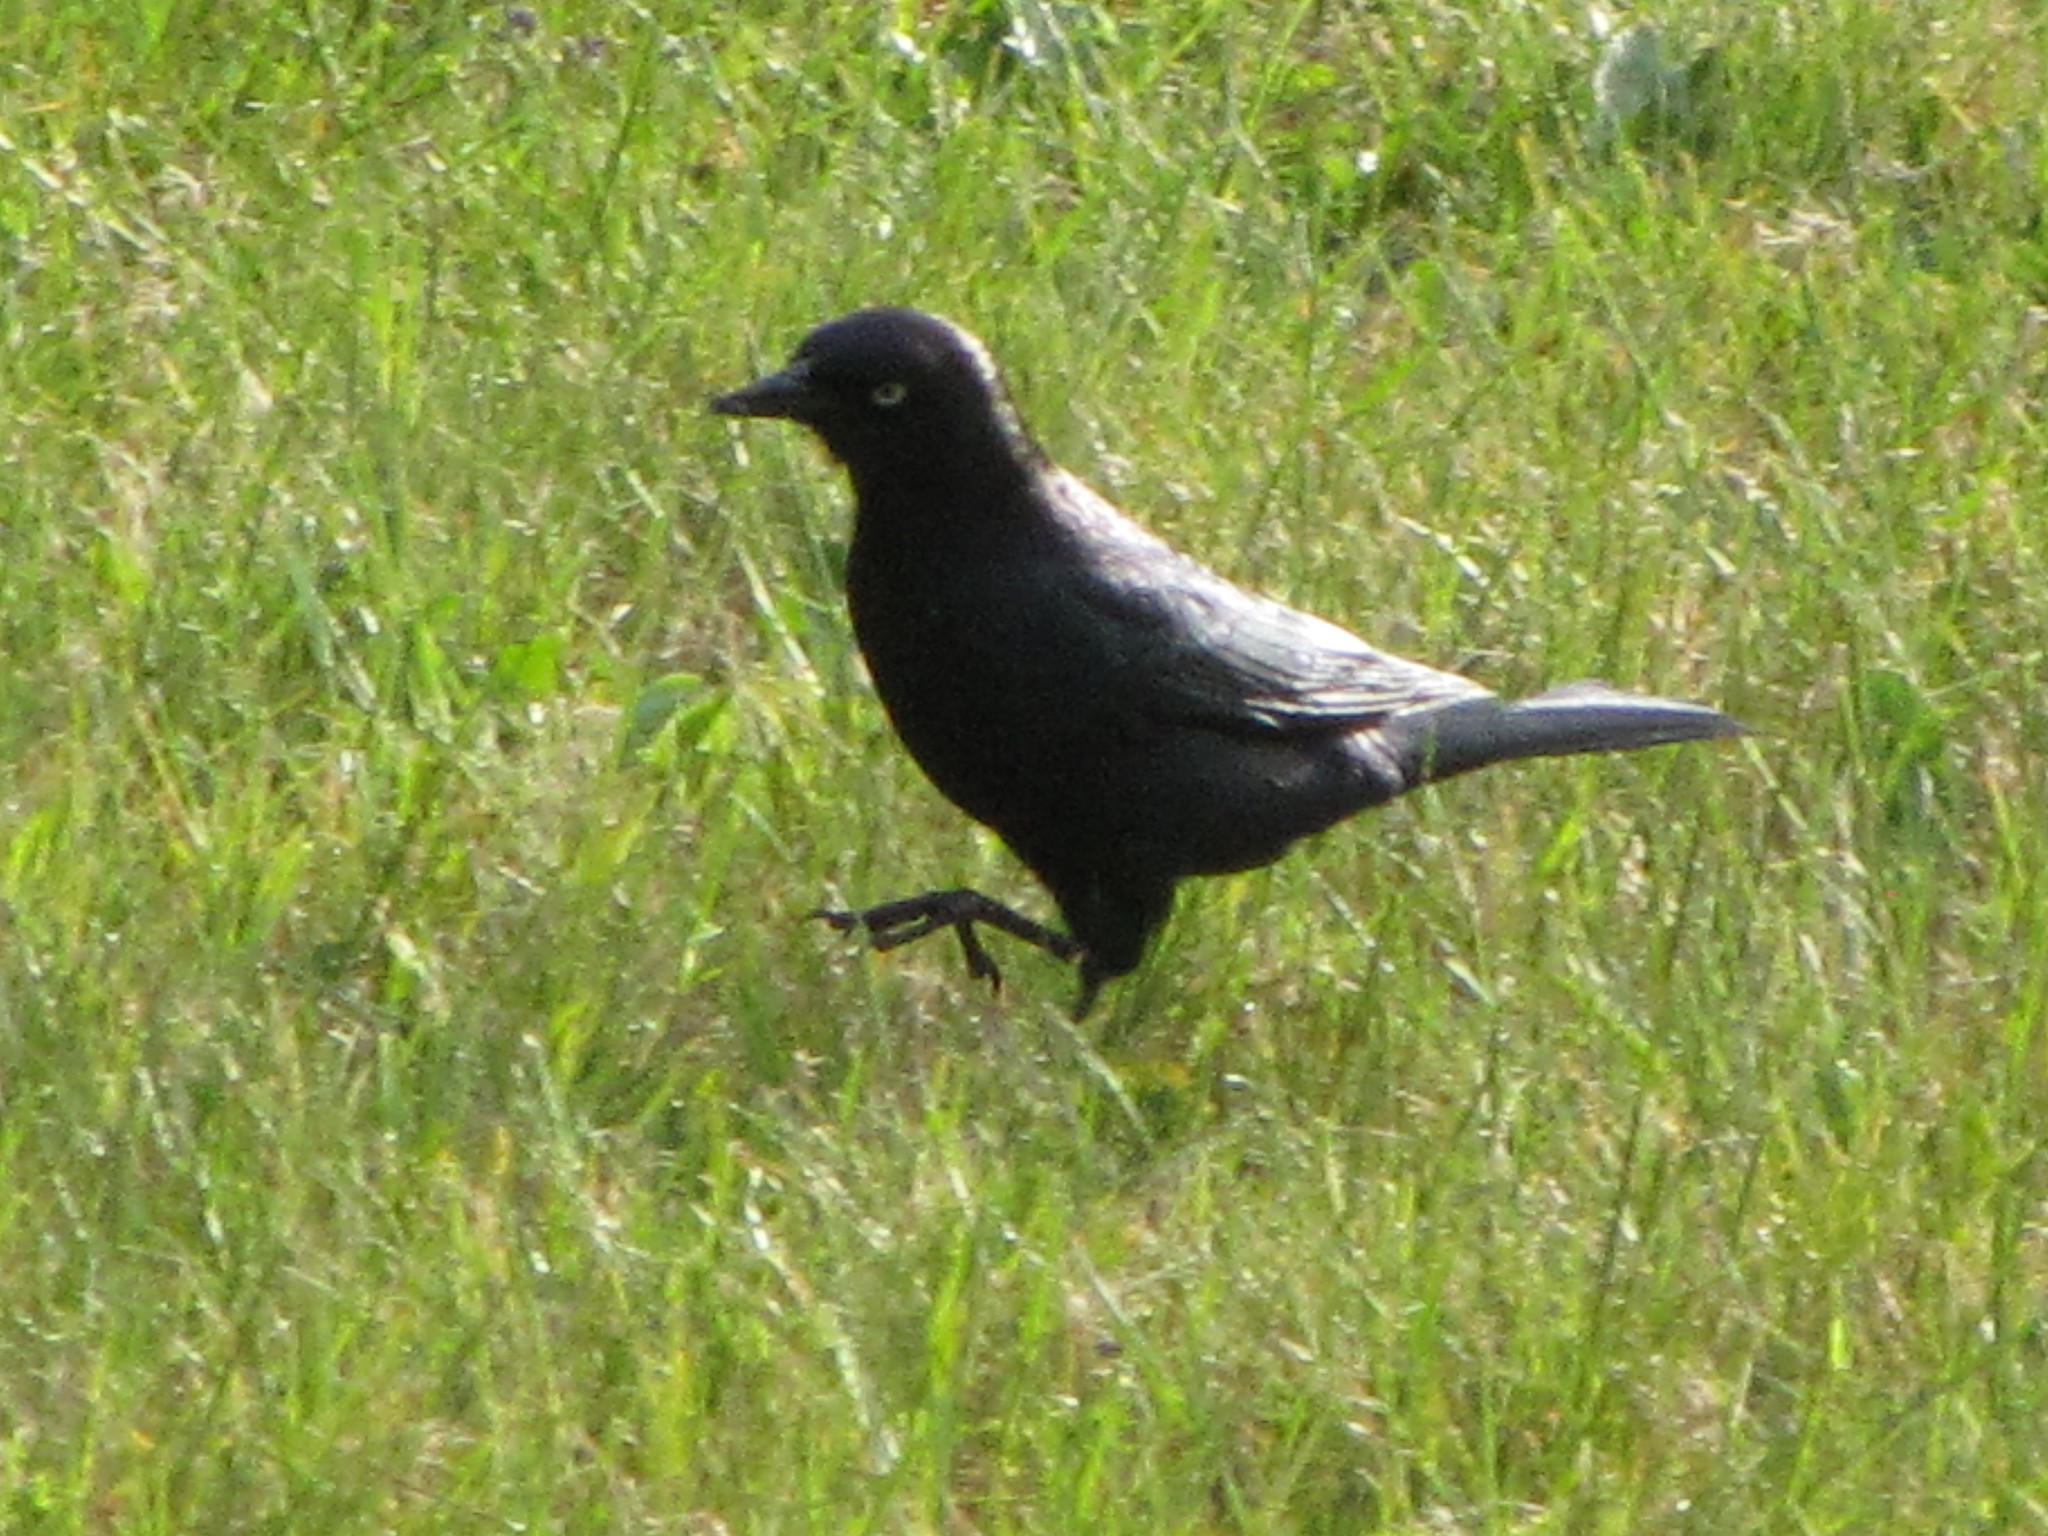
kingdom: Animalia
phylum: Chordata
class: Aves
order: Passeriformes
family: Icteridae
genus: Euphagus
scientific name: Euphagus cyanocephalus
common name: Brewer's blackbird
